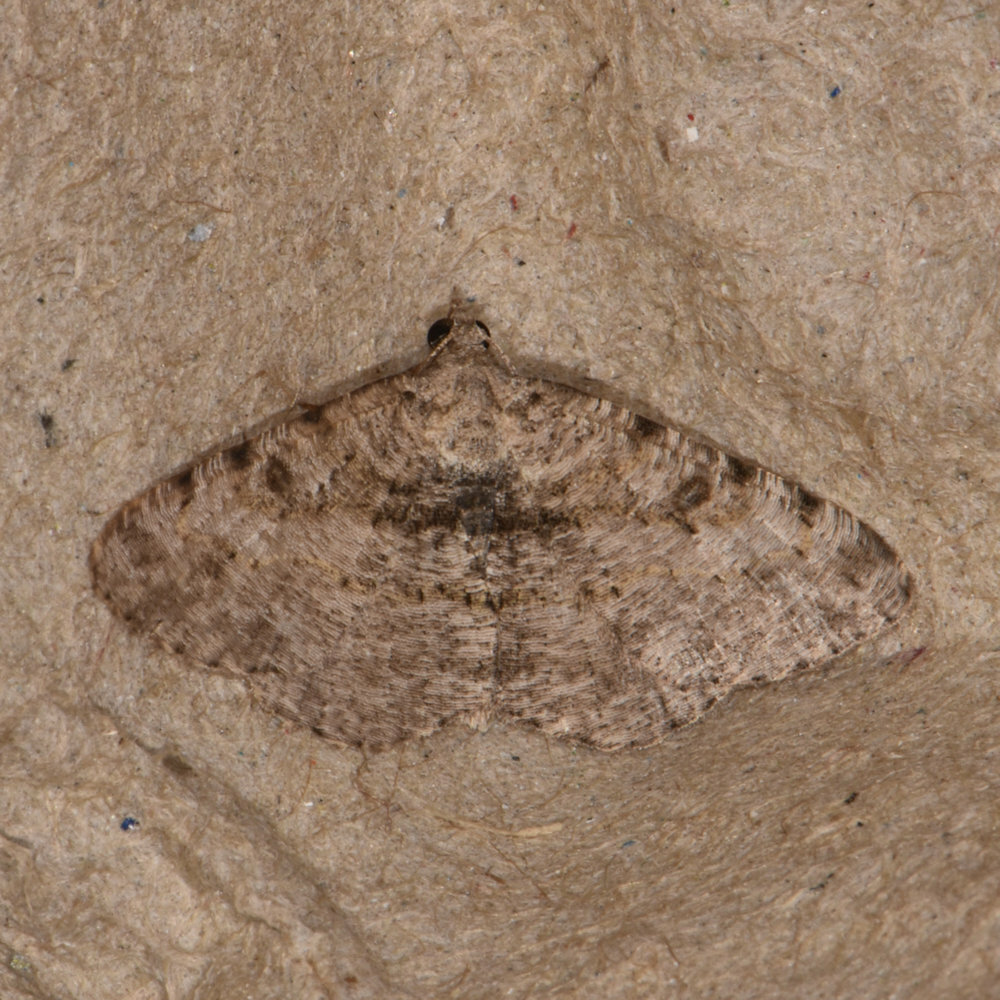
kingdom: Animalia
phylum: Arthropoda
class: Insecta
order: Lepidoptera
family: Geometridae
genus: Digrammia
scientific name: Digrammia gnophosaria
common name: Hollow-spotted angle
